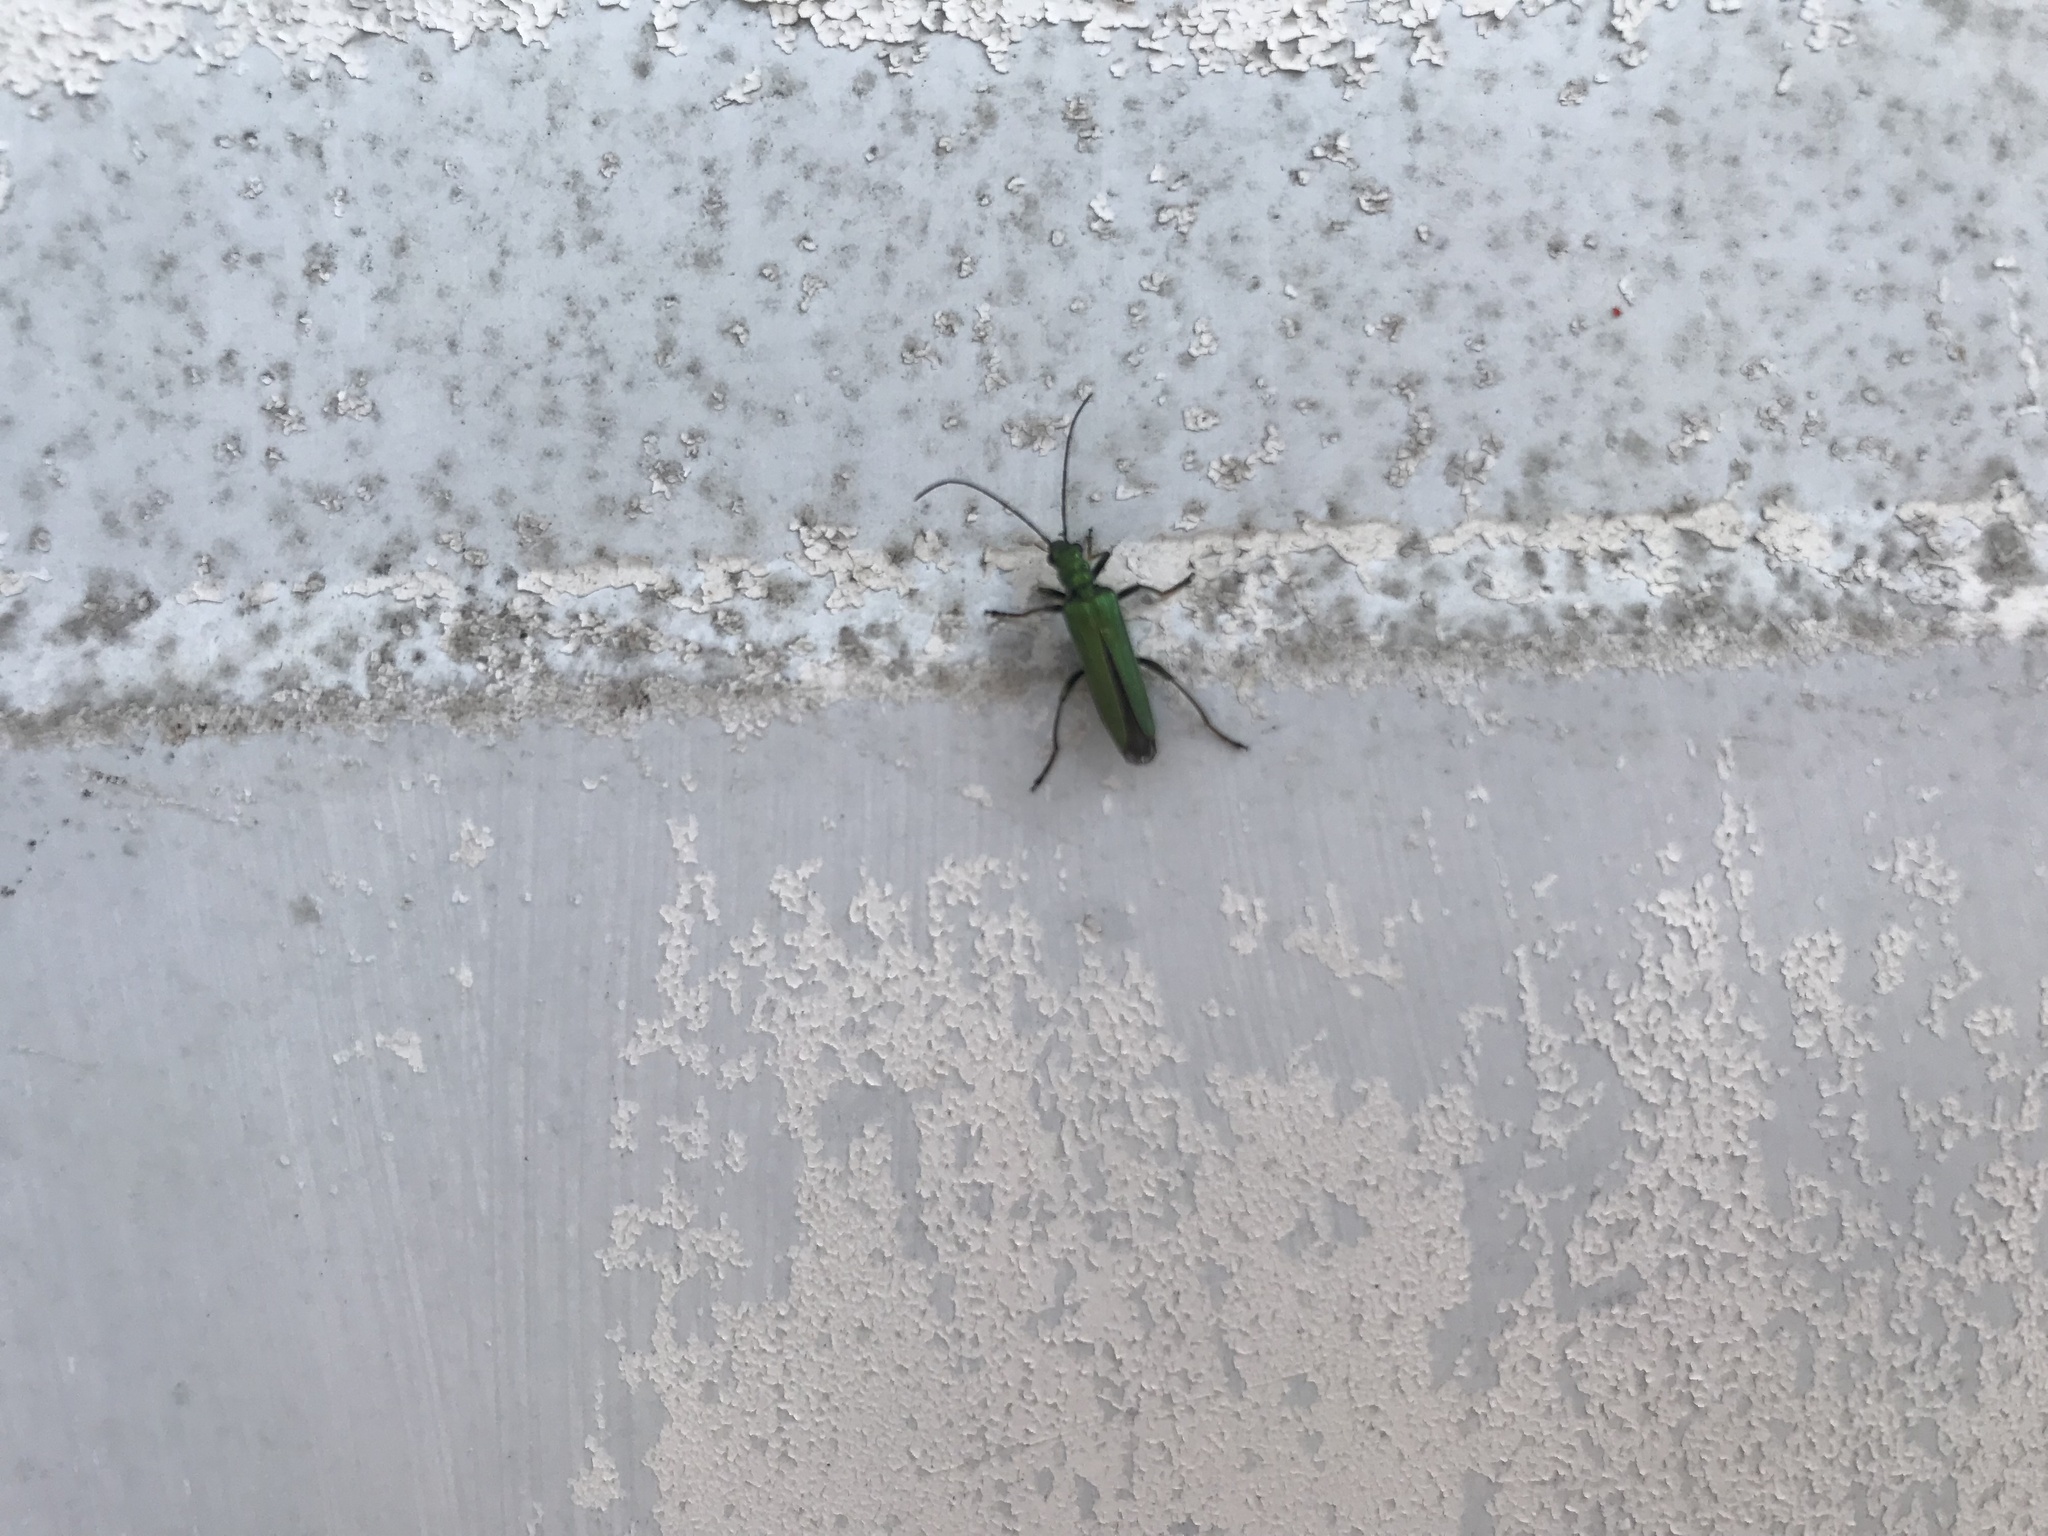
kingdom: Animalia
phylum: Arthropoda
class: Insecta
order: Coleoptera
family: Oedemeridae
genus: Oedemera
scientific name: Oedemera nobilis
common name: Swollen-thighed beetle
